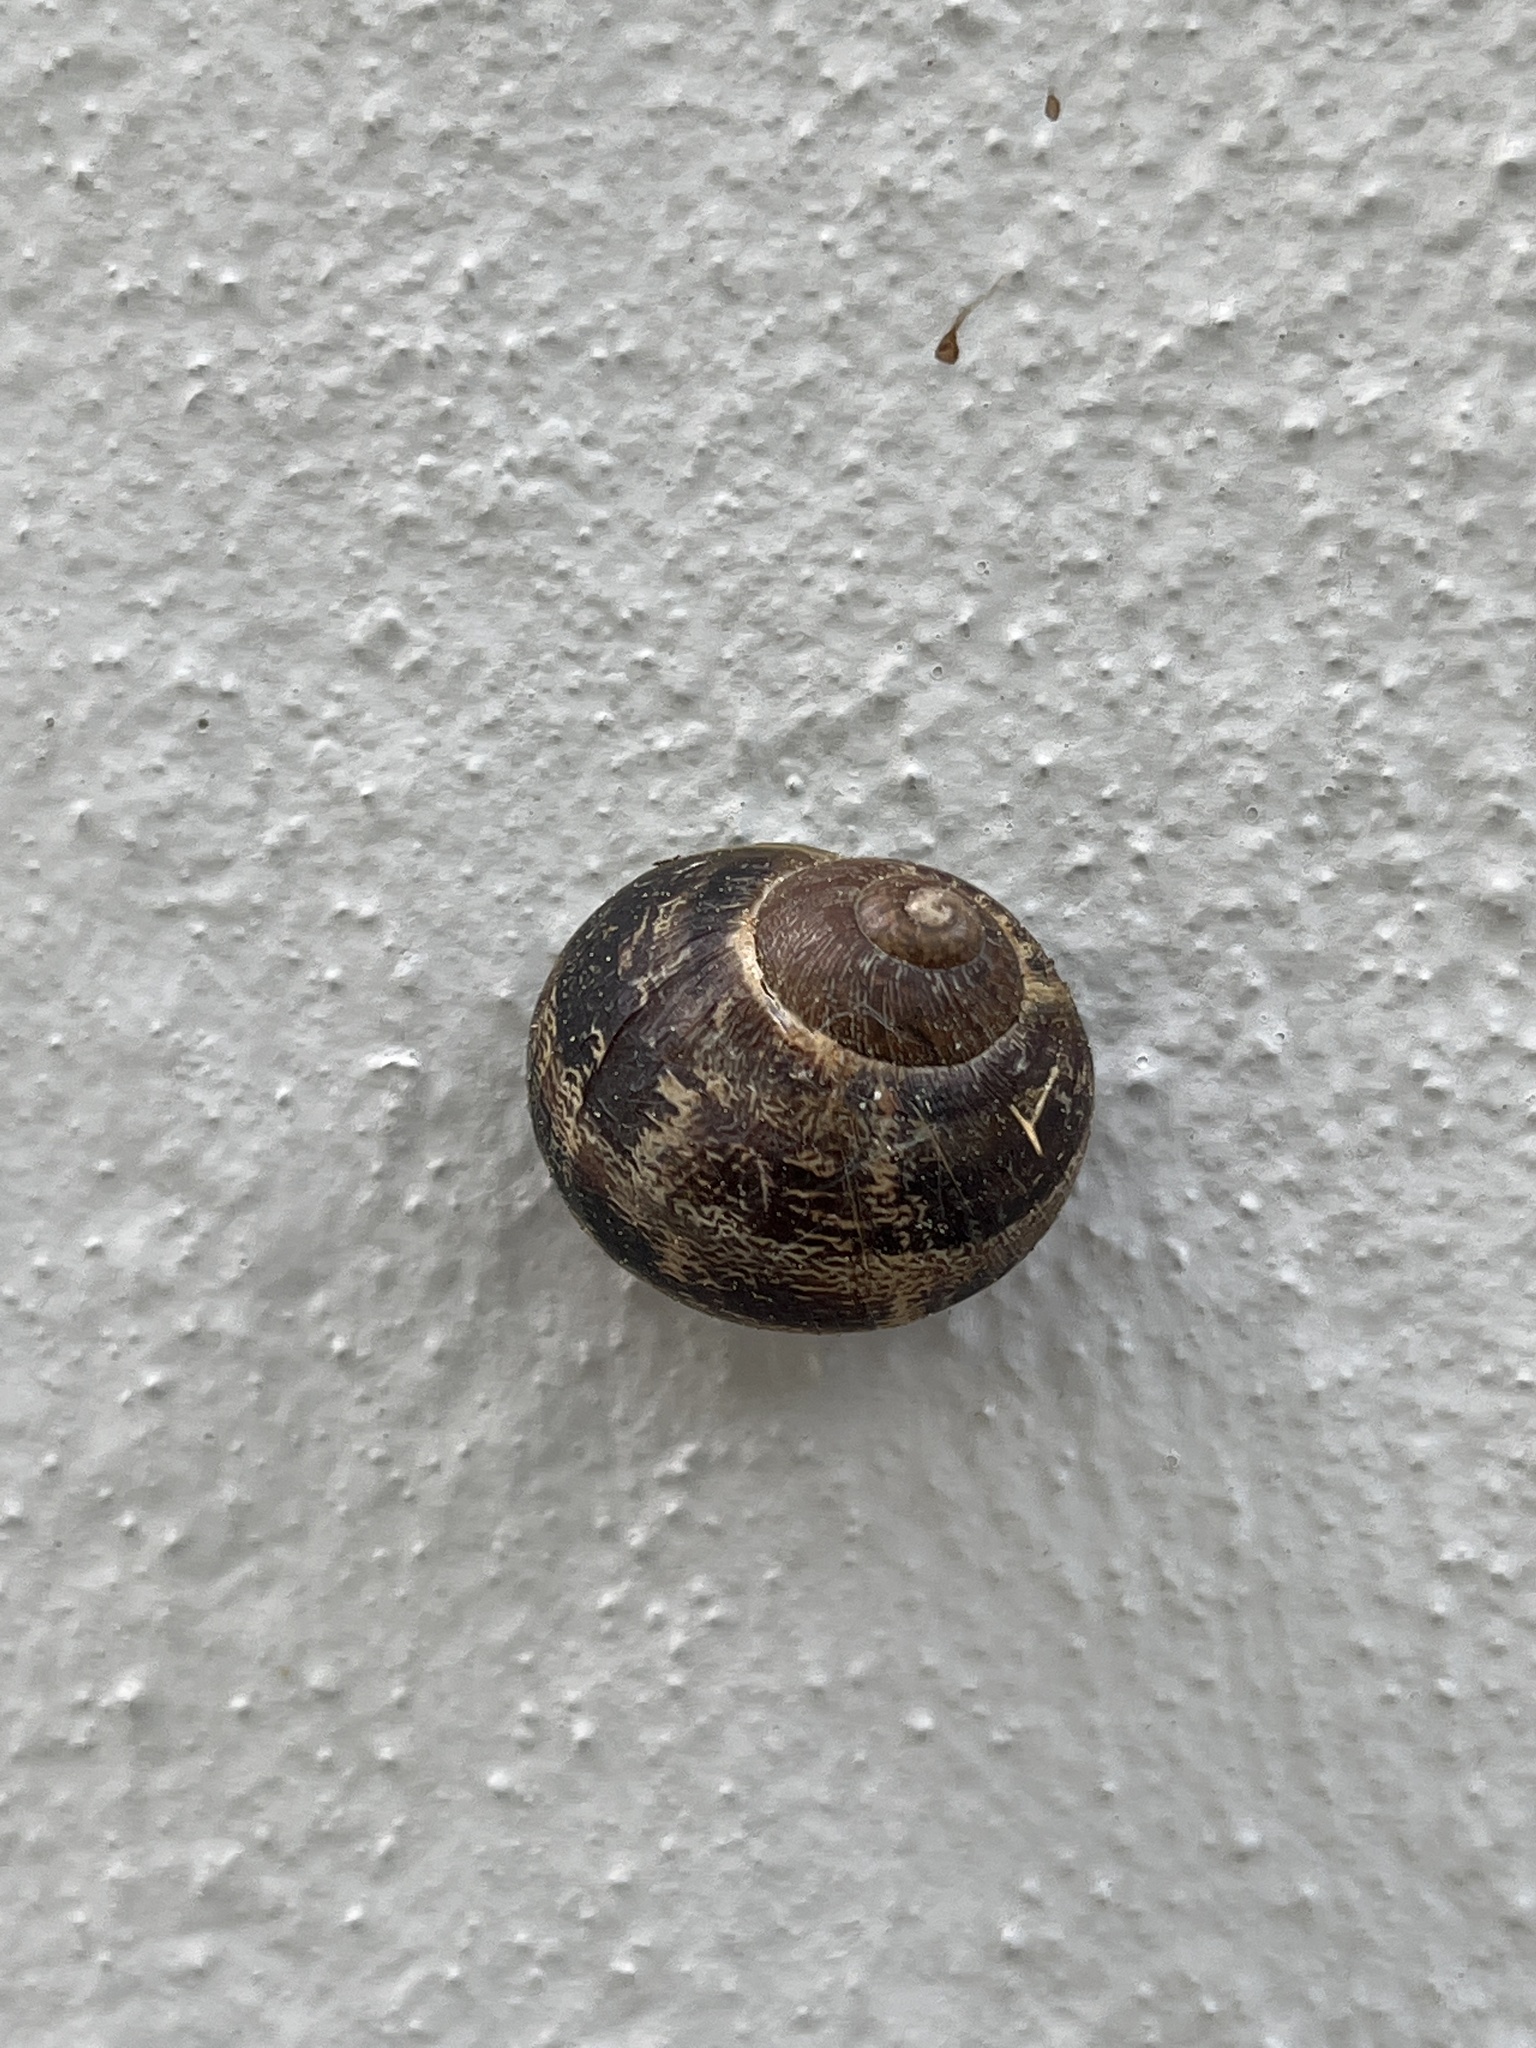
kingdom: Animalia
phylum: Mollusca
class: Gastropoda
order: Stylommatophora
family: Helicidae
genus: Cornu
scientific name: Cornu aspersum
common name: Brown garden snail
